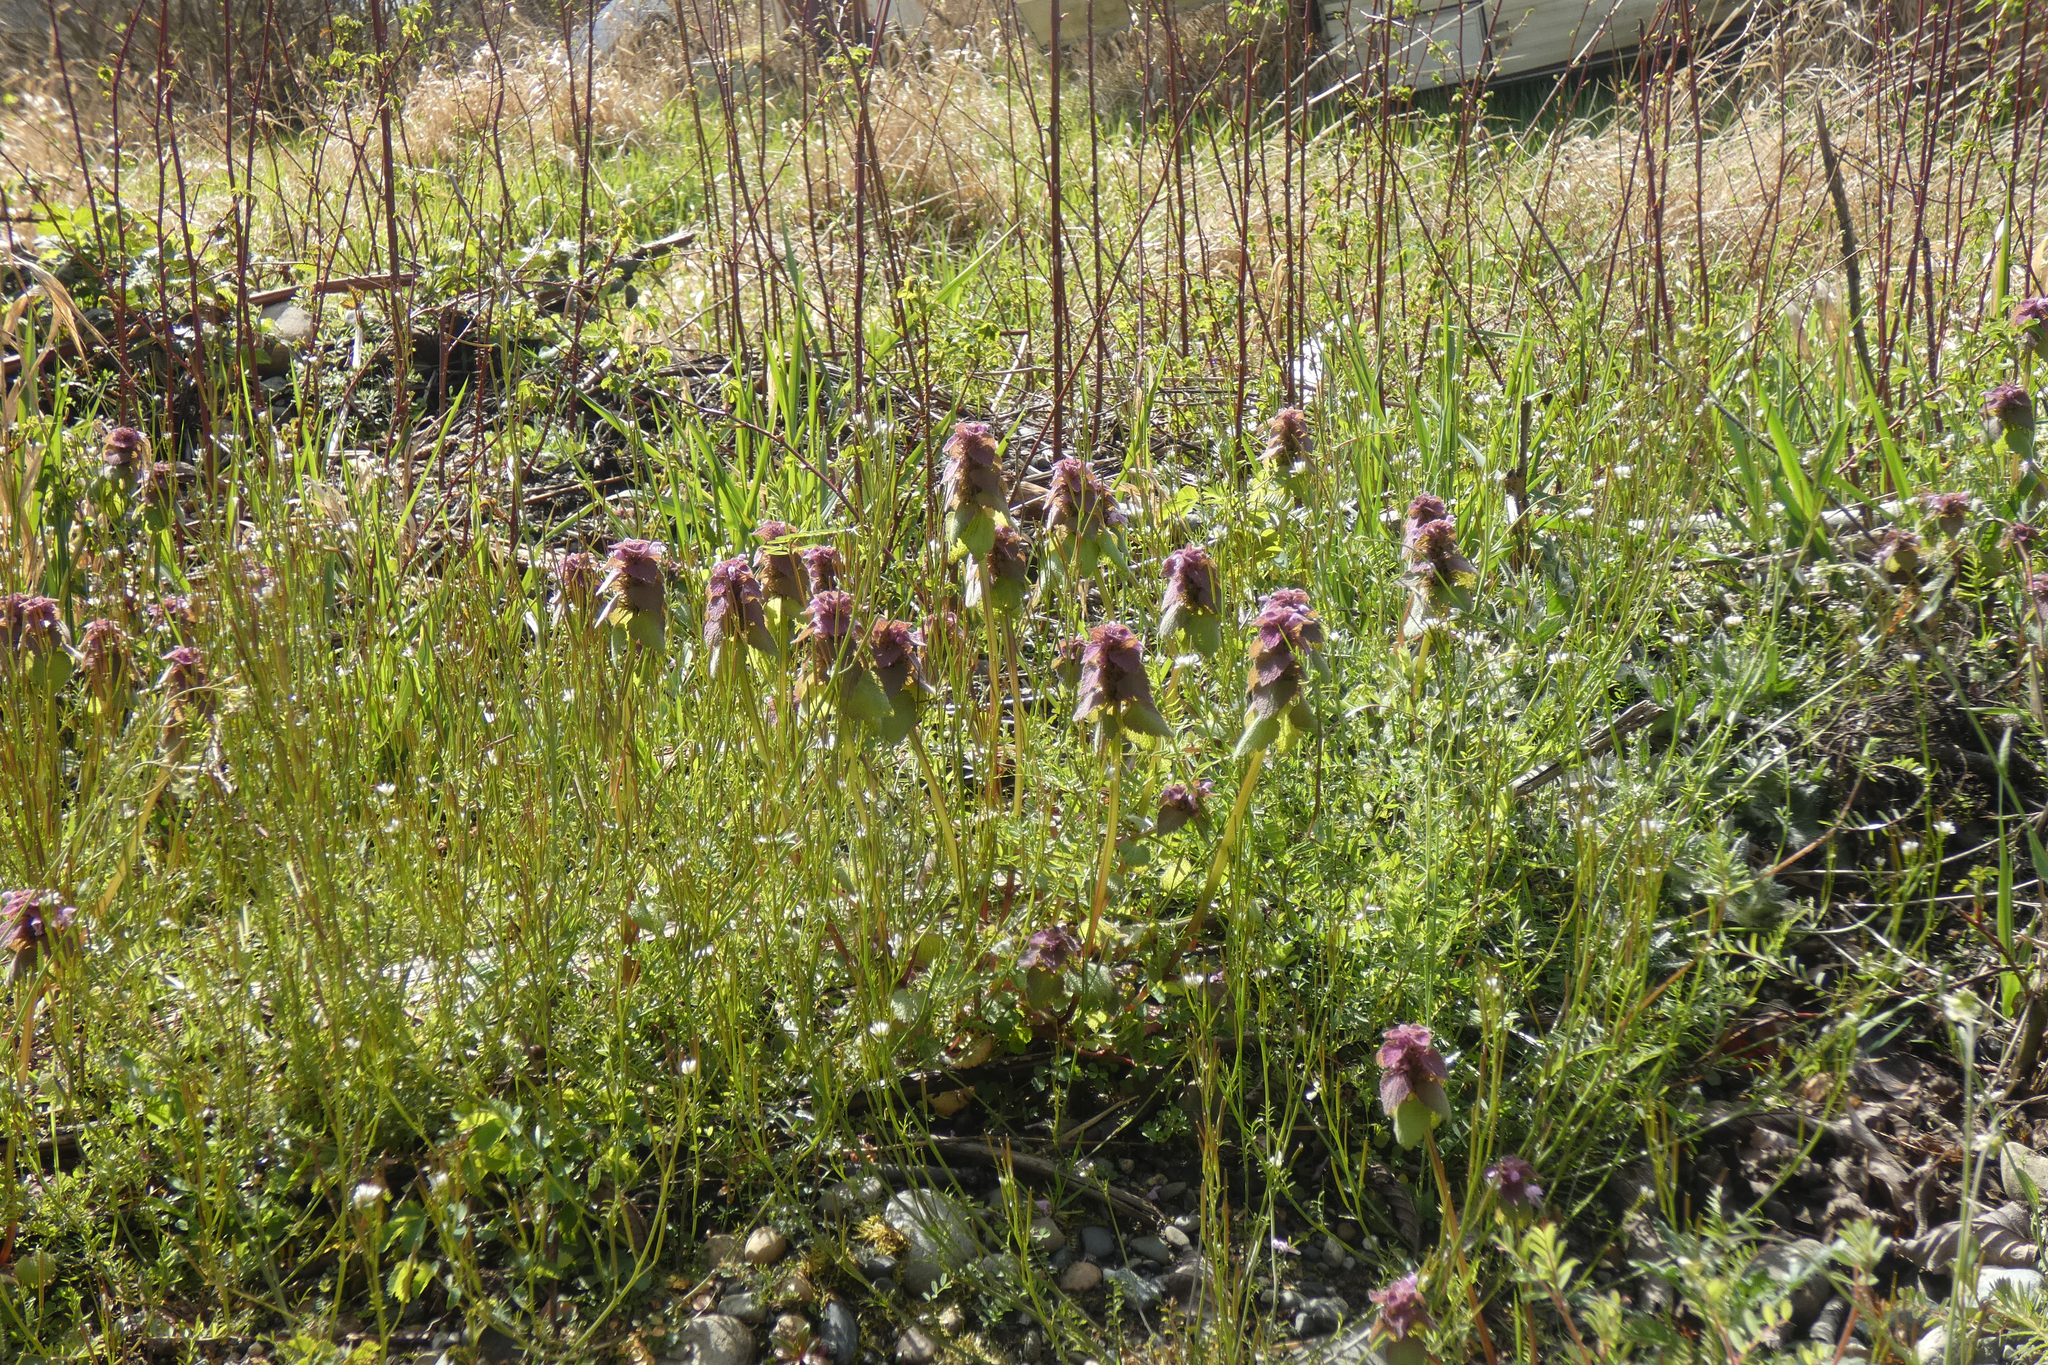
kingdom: Plantae
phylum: Tracheophyta
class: Magnoliopsida
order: Lamiales
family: Lamiaceae
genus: Lamium
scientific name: Lamium purpureum
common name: Red dead-nettle
